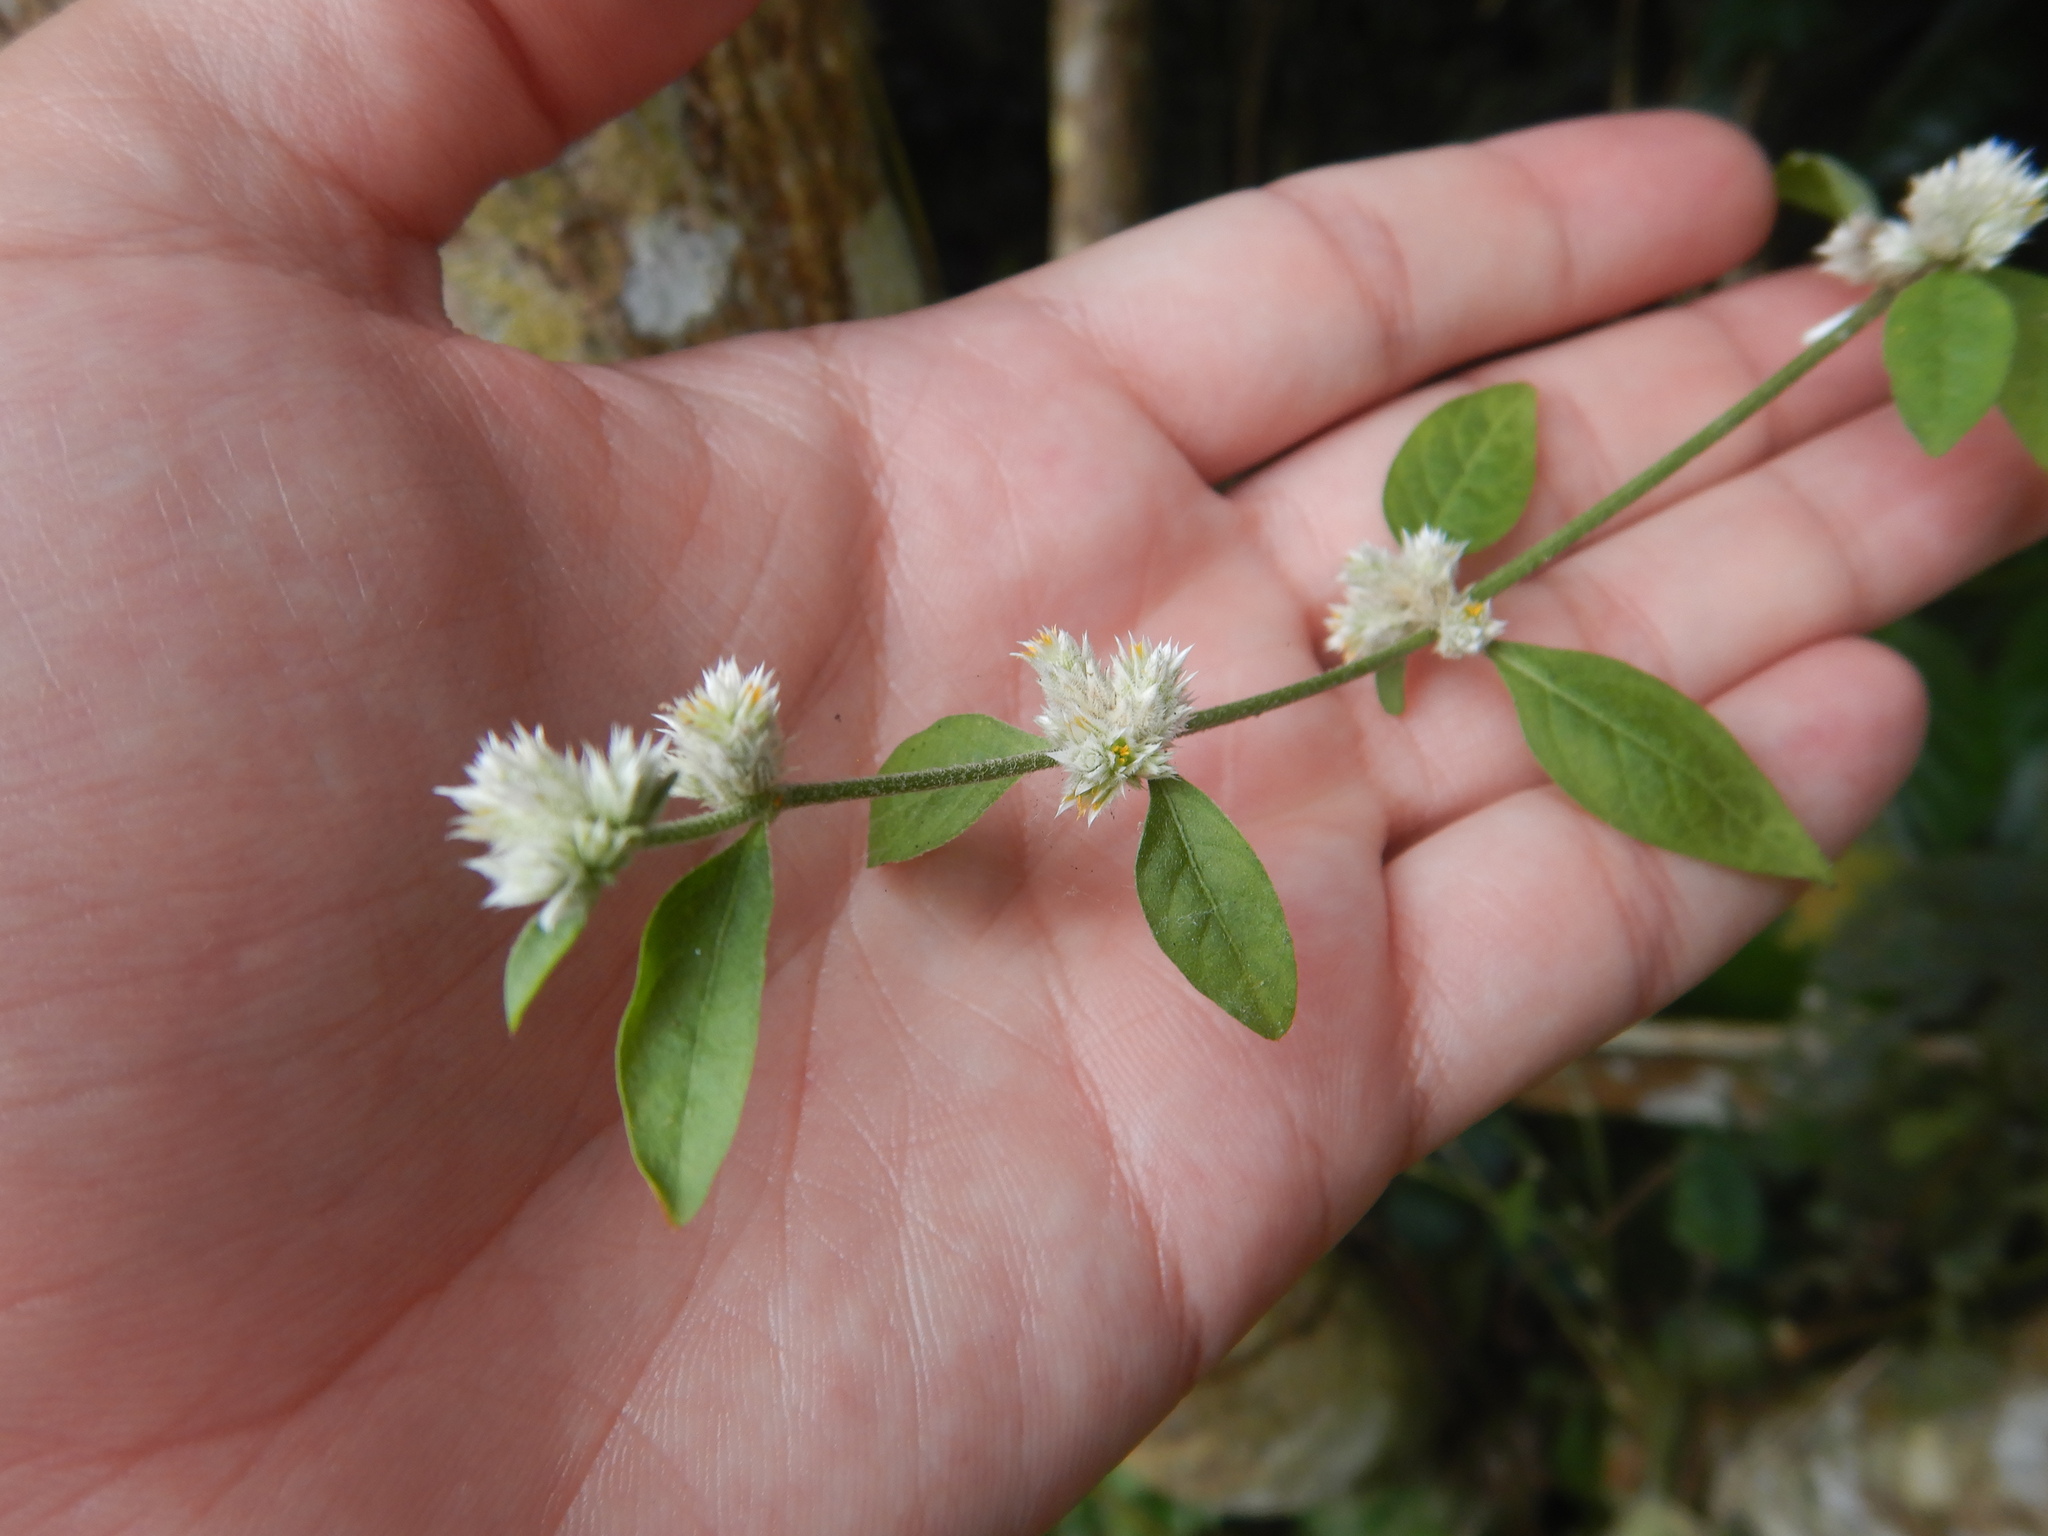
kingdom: Plantae
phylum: Tracheophyta
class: Magnoliopsida
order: Caryophyllales
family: Amaranthaceae
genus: Alternanthera
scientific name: Alternanthera sessilis
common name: Sessile joyweed
